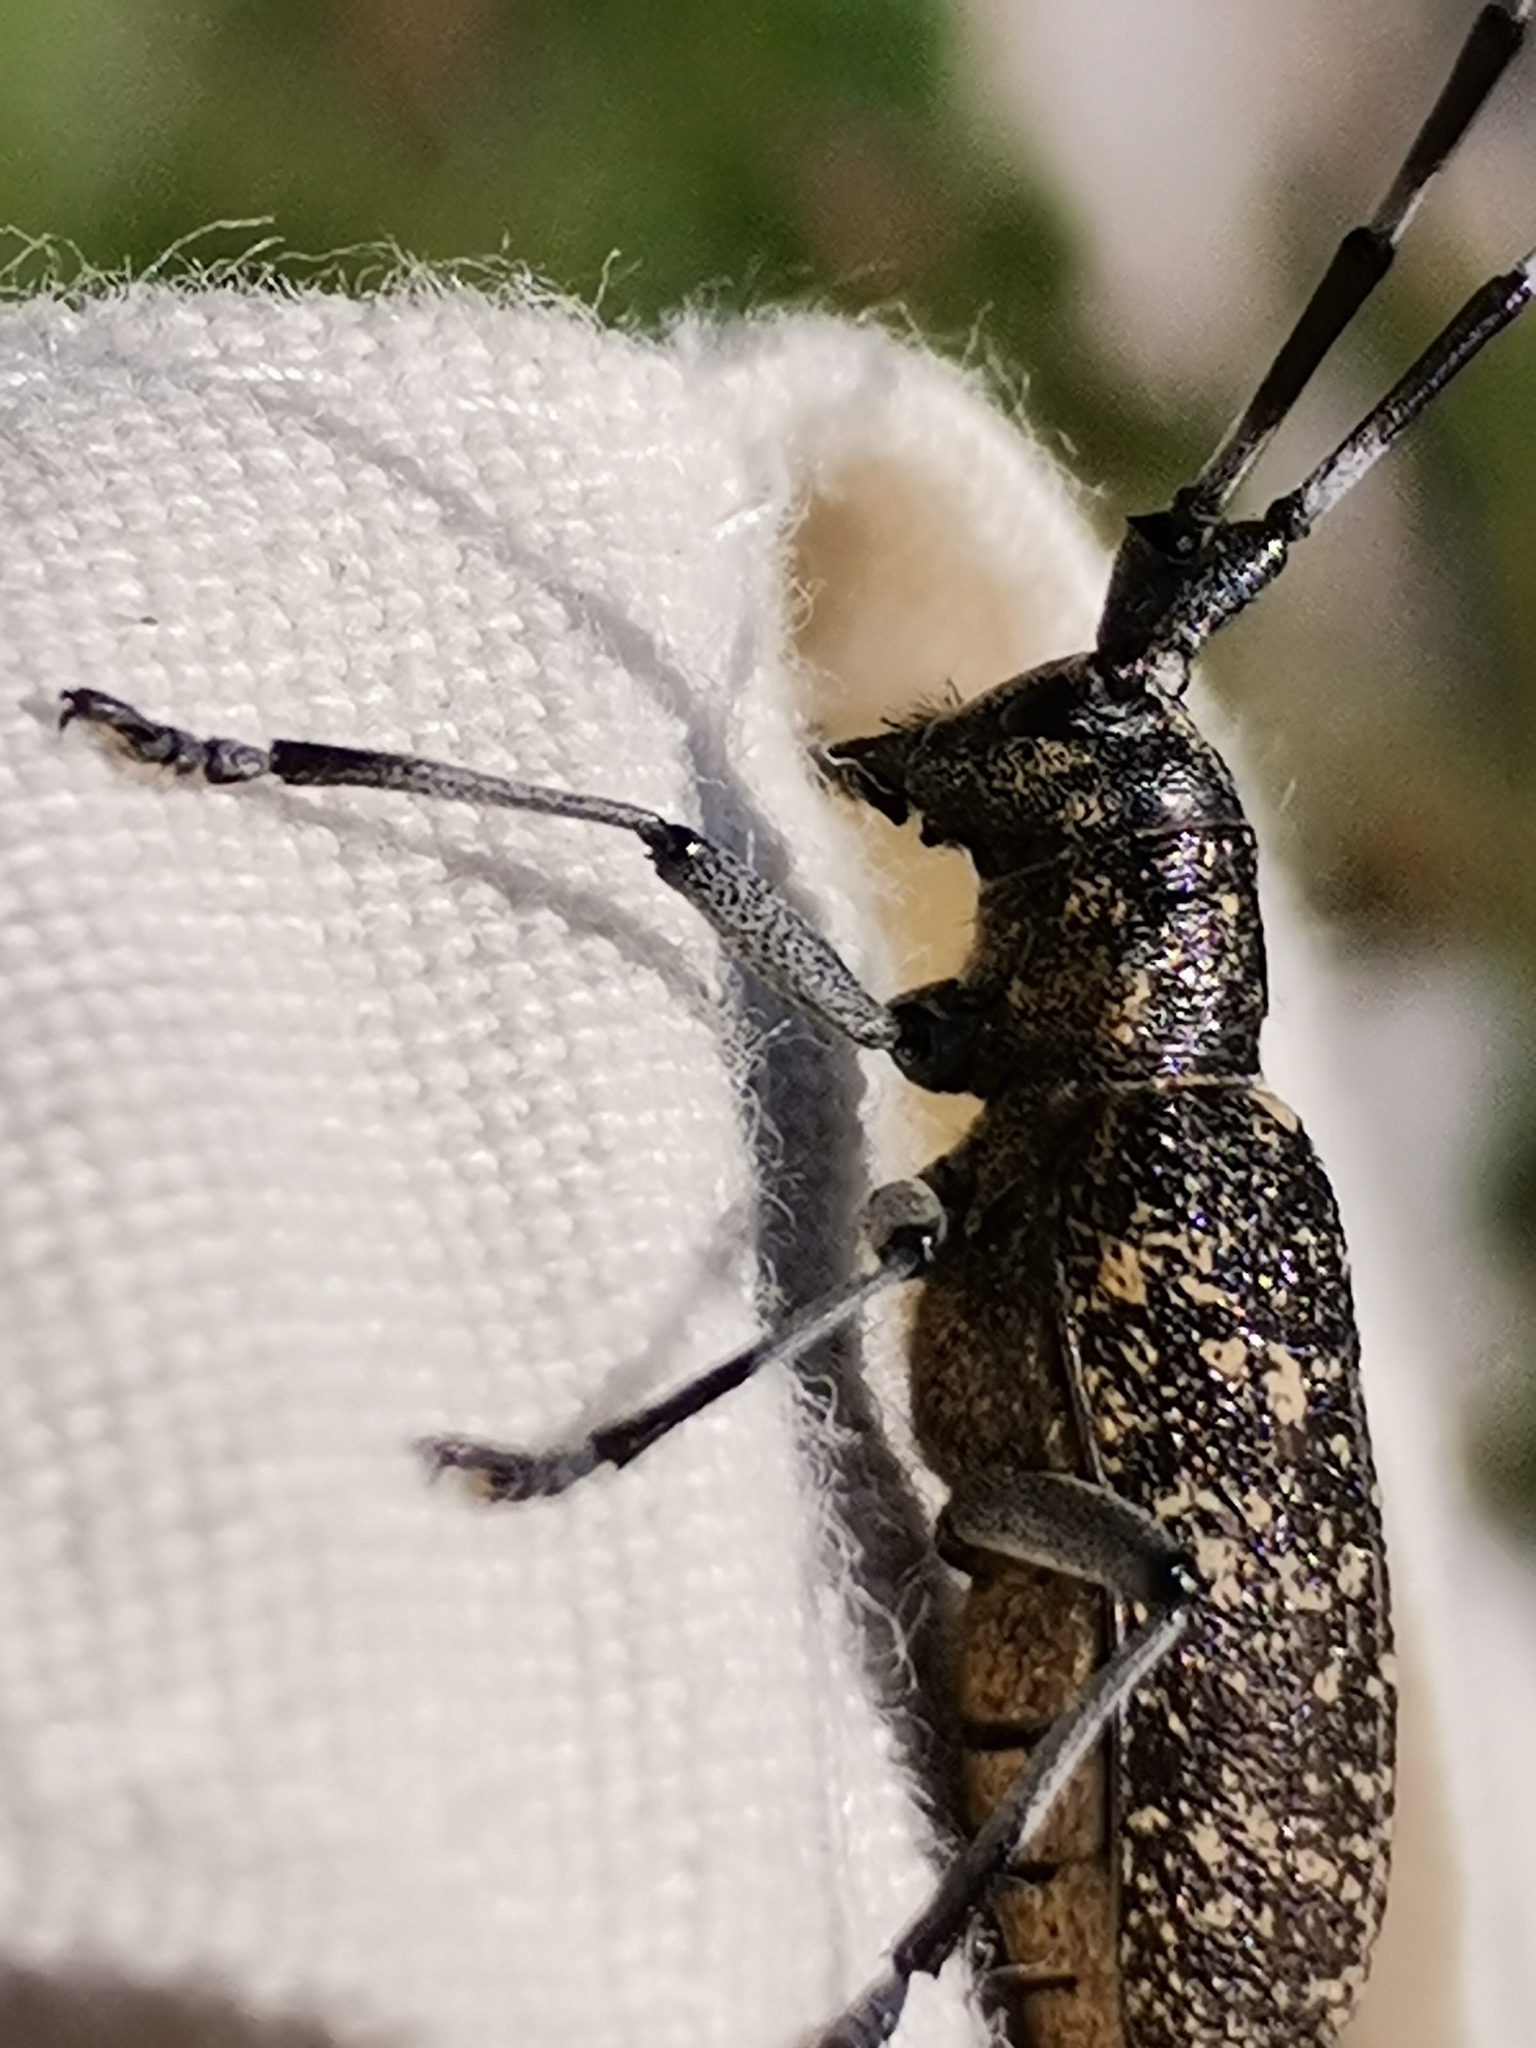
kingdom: Animalia
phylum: Arthropoda
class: Insecta
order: Coleoptera
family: Cerambycidae
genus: Monochamus
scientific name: Monochamus sutor
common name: Pine sawyer
